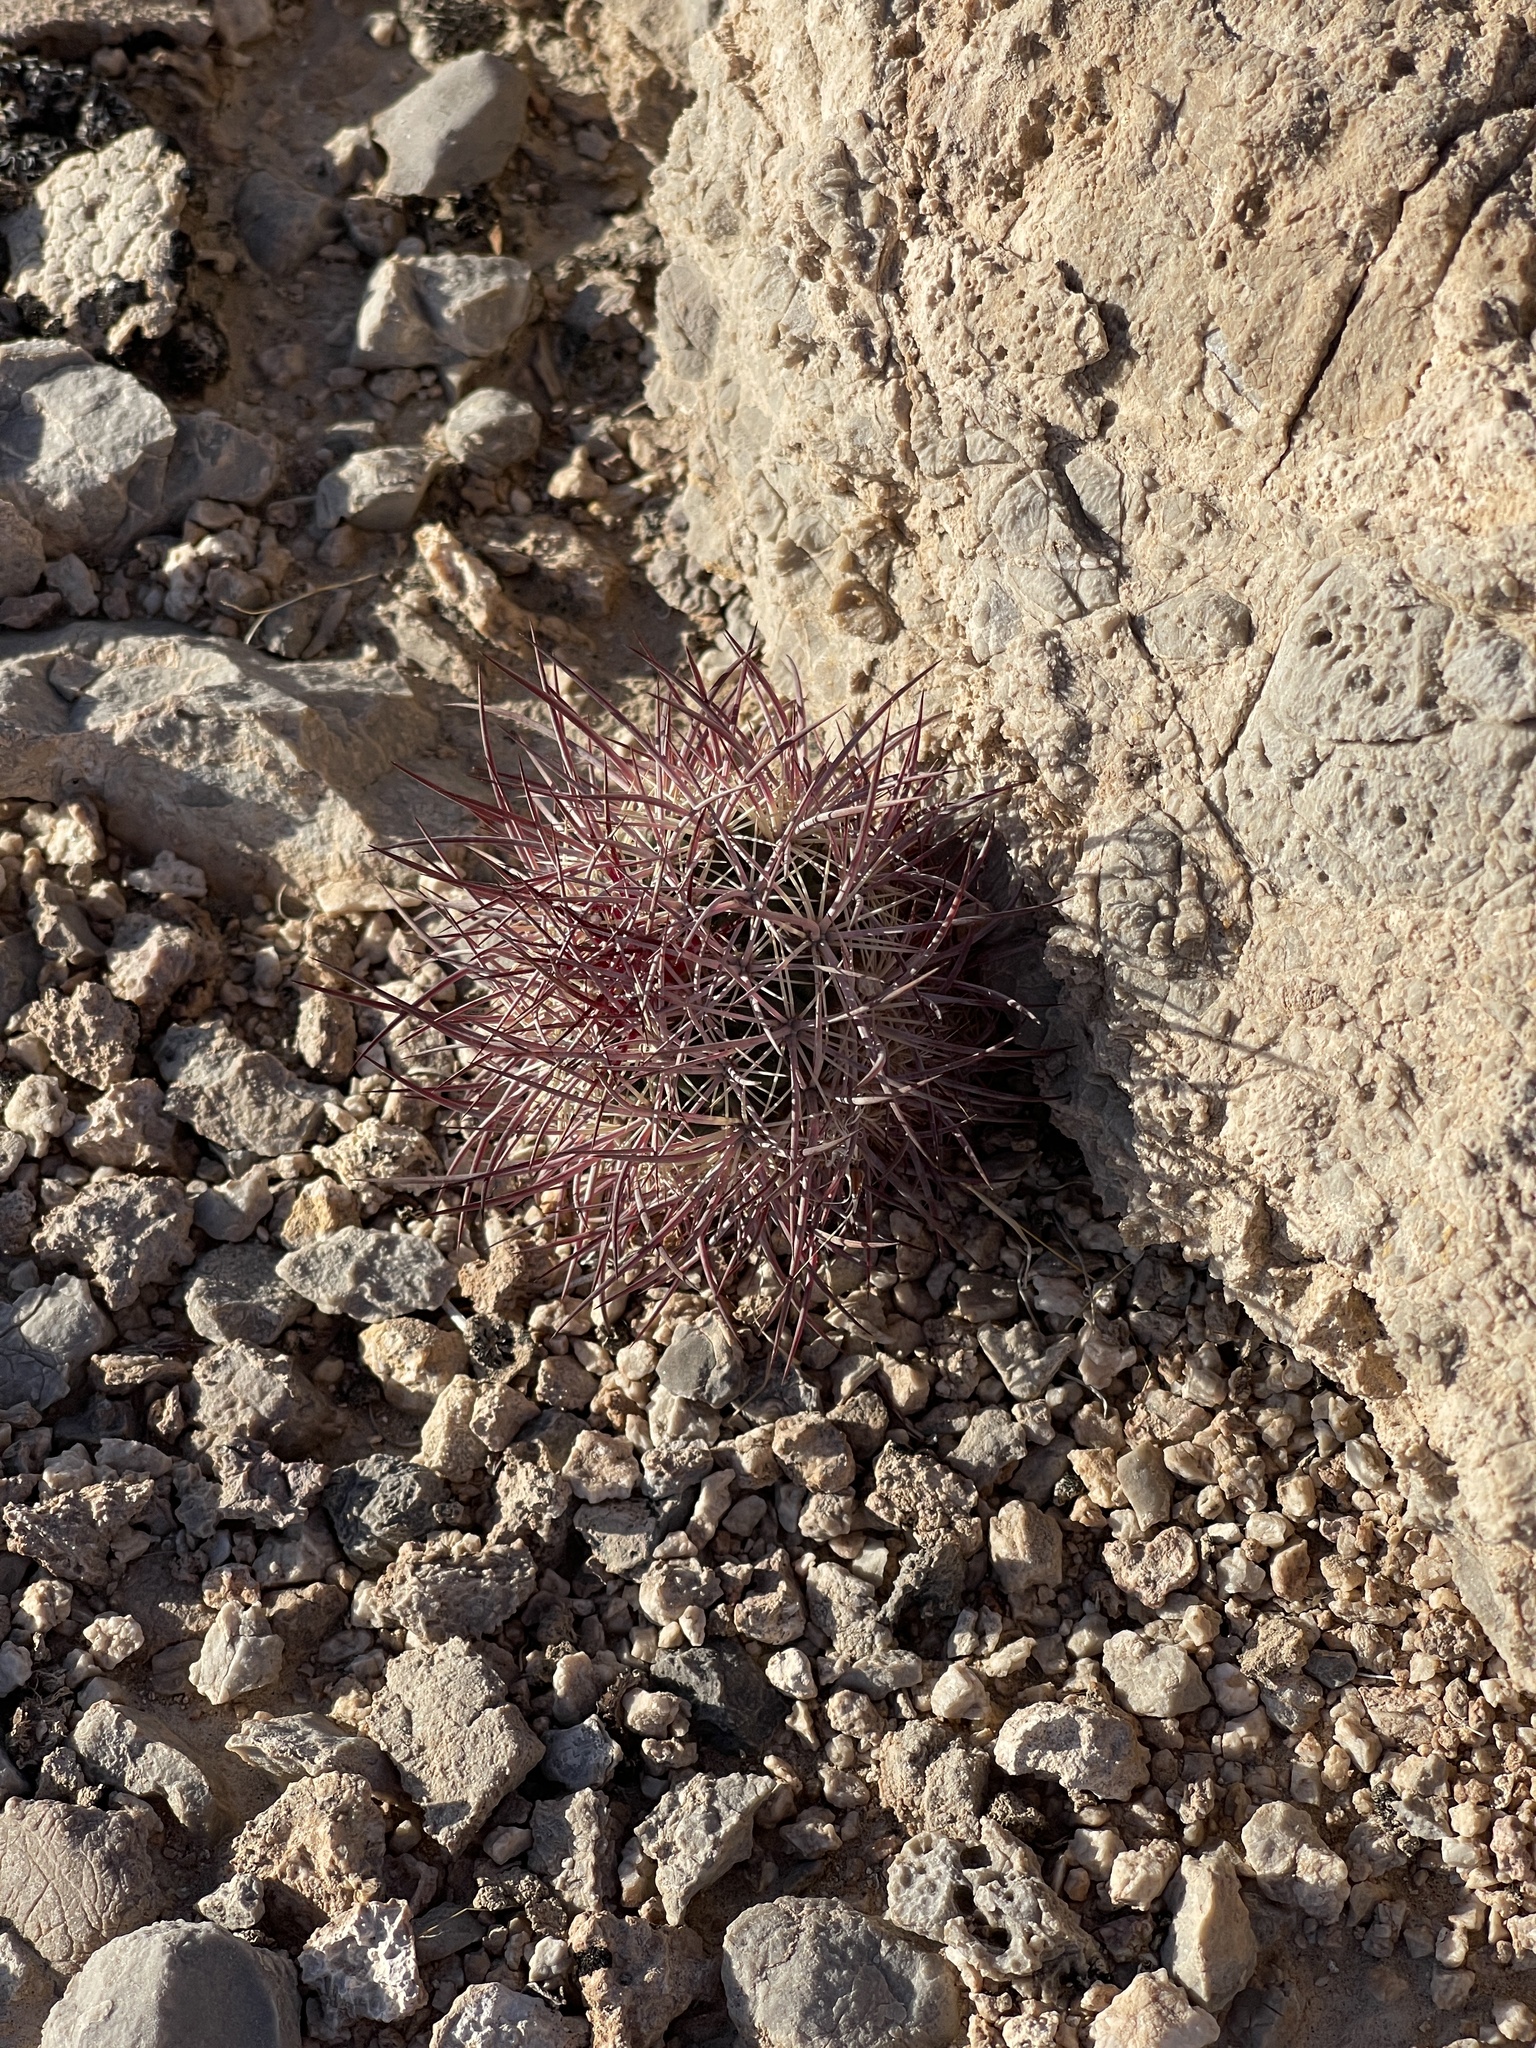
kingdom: Plantae
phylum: Tracheophyta
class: Magnoliopsida
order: Caryophyllales
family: Cactaceae
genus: Sclerocactus
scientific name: Sclerocactus johnsonii
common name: Eight-spine fishhook cactus
